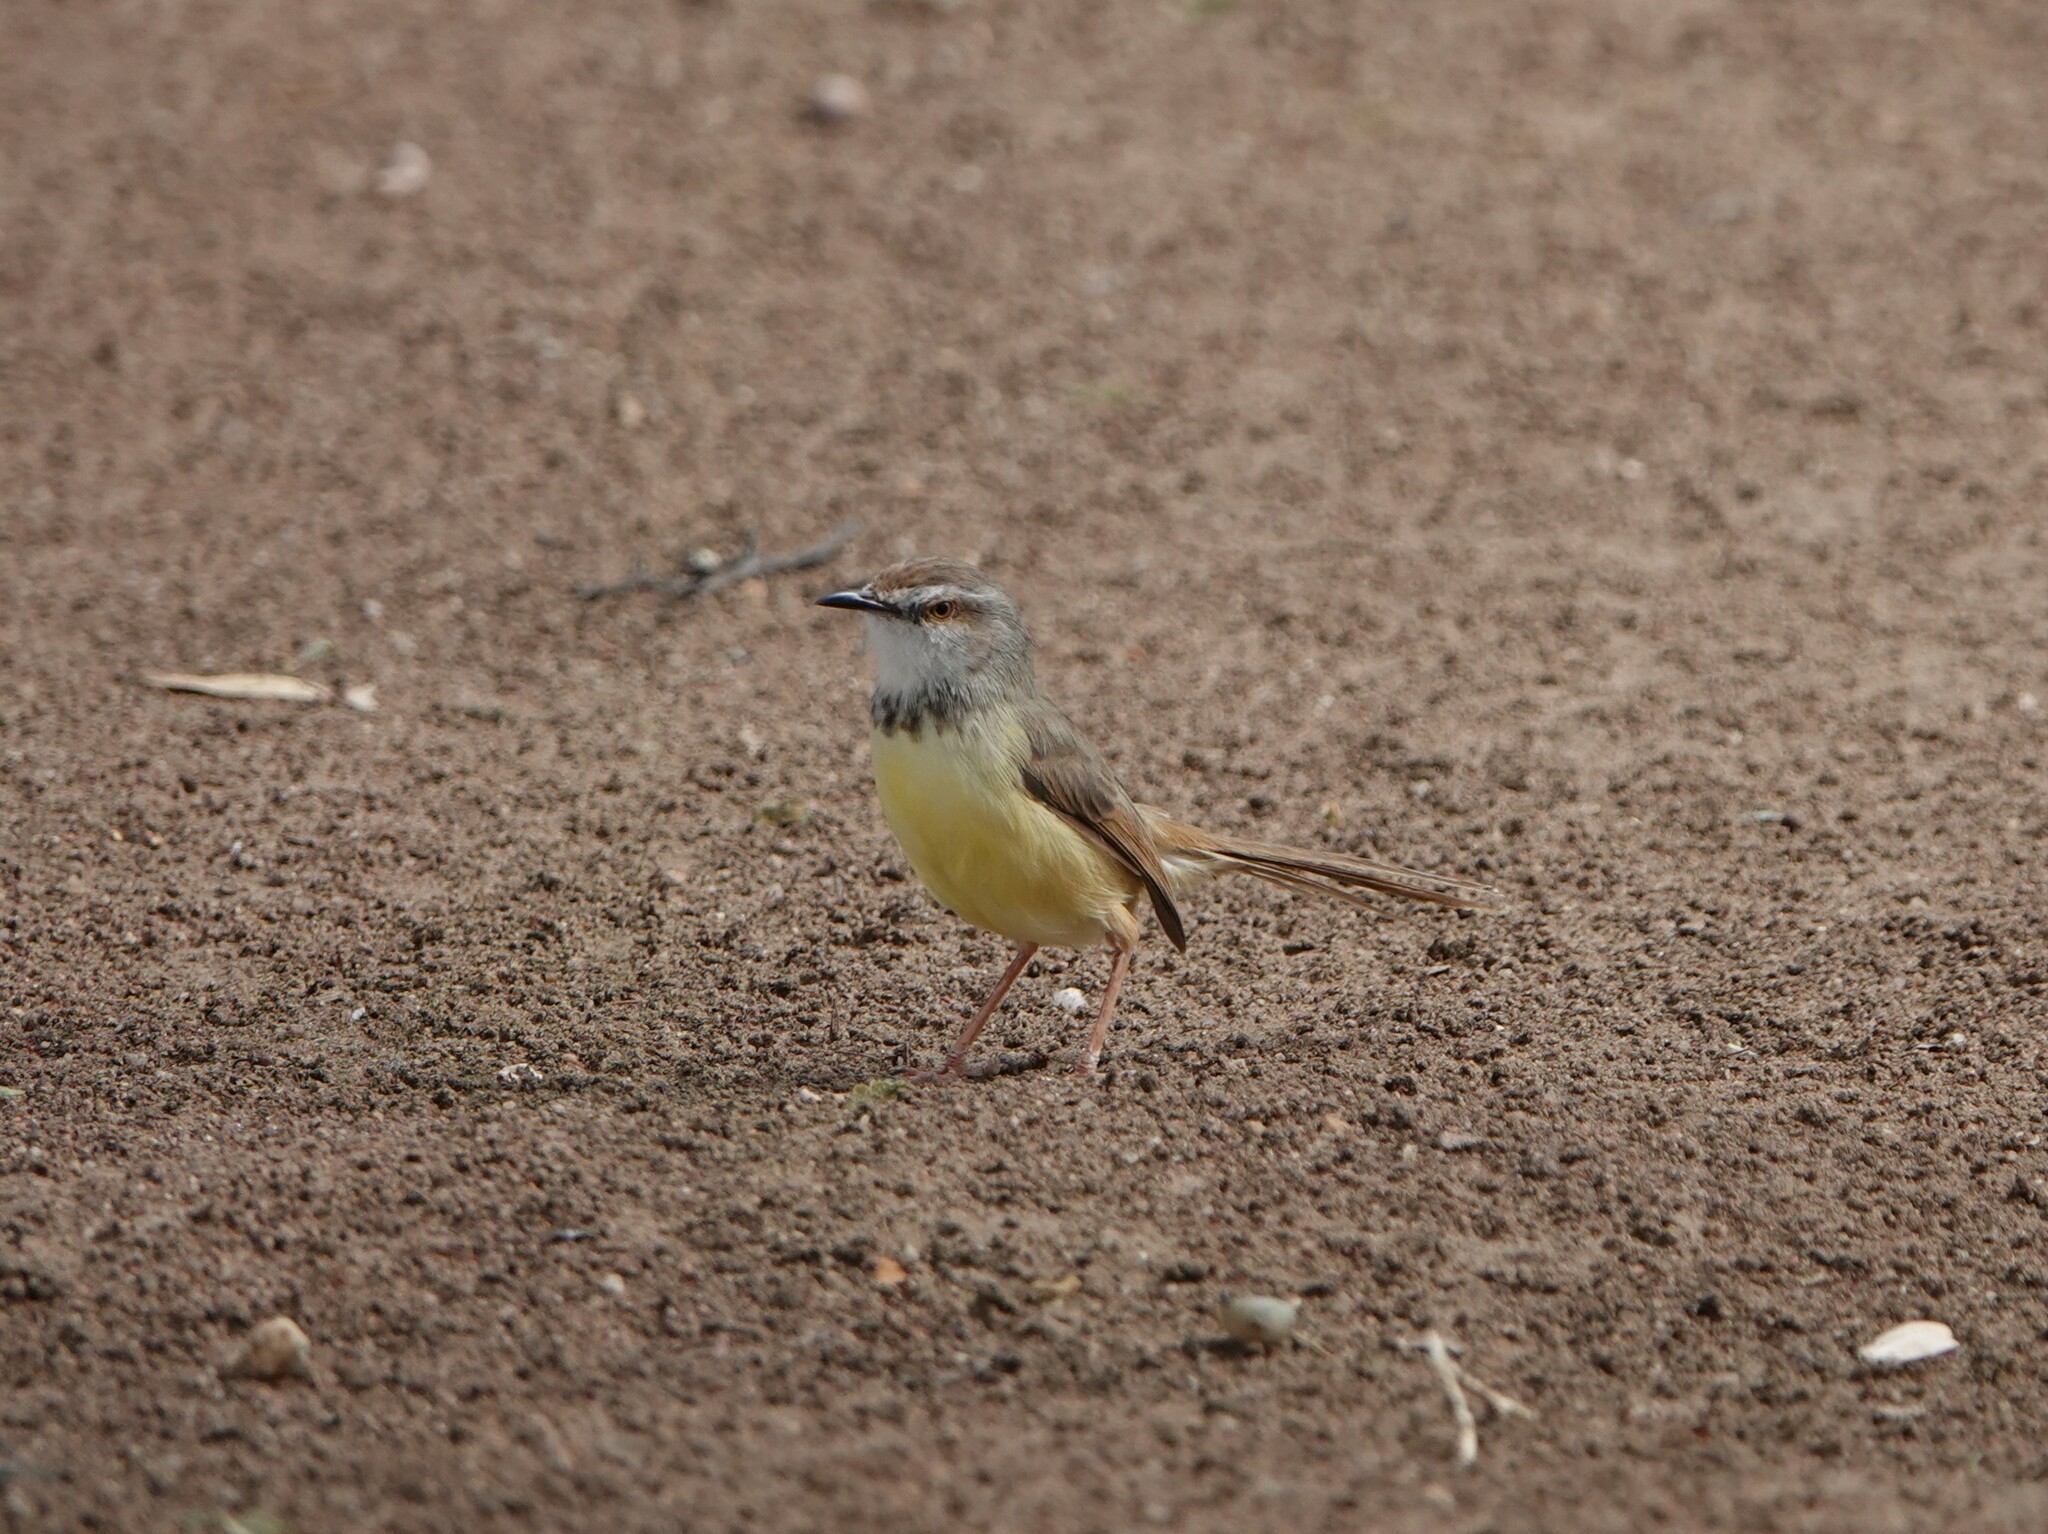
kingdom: Animalia
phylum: Chordata
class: Aves
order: Passeriformes
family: Cisticolidae
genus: Prinia
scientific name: Prinia flavicans
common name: Black-chested prinia
